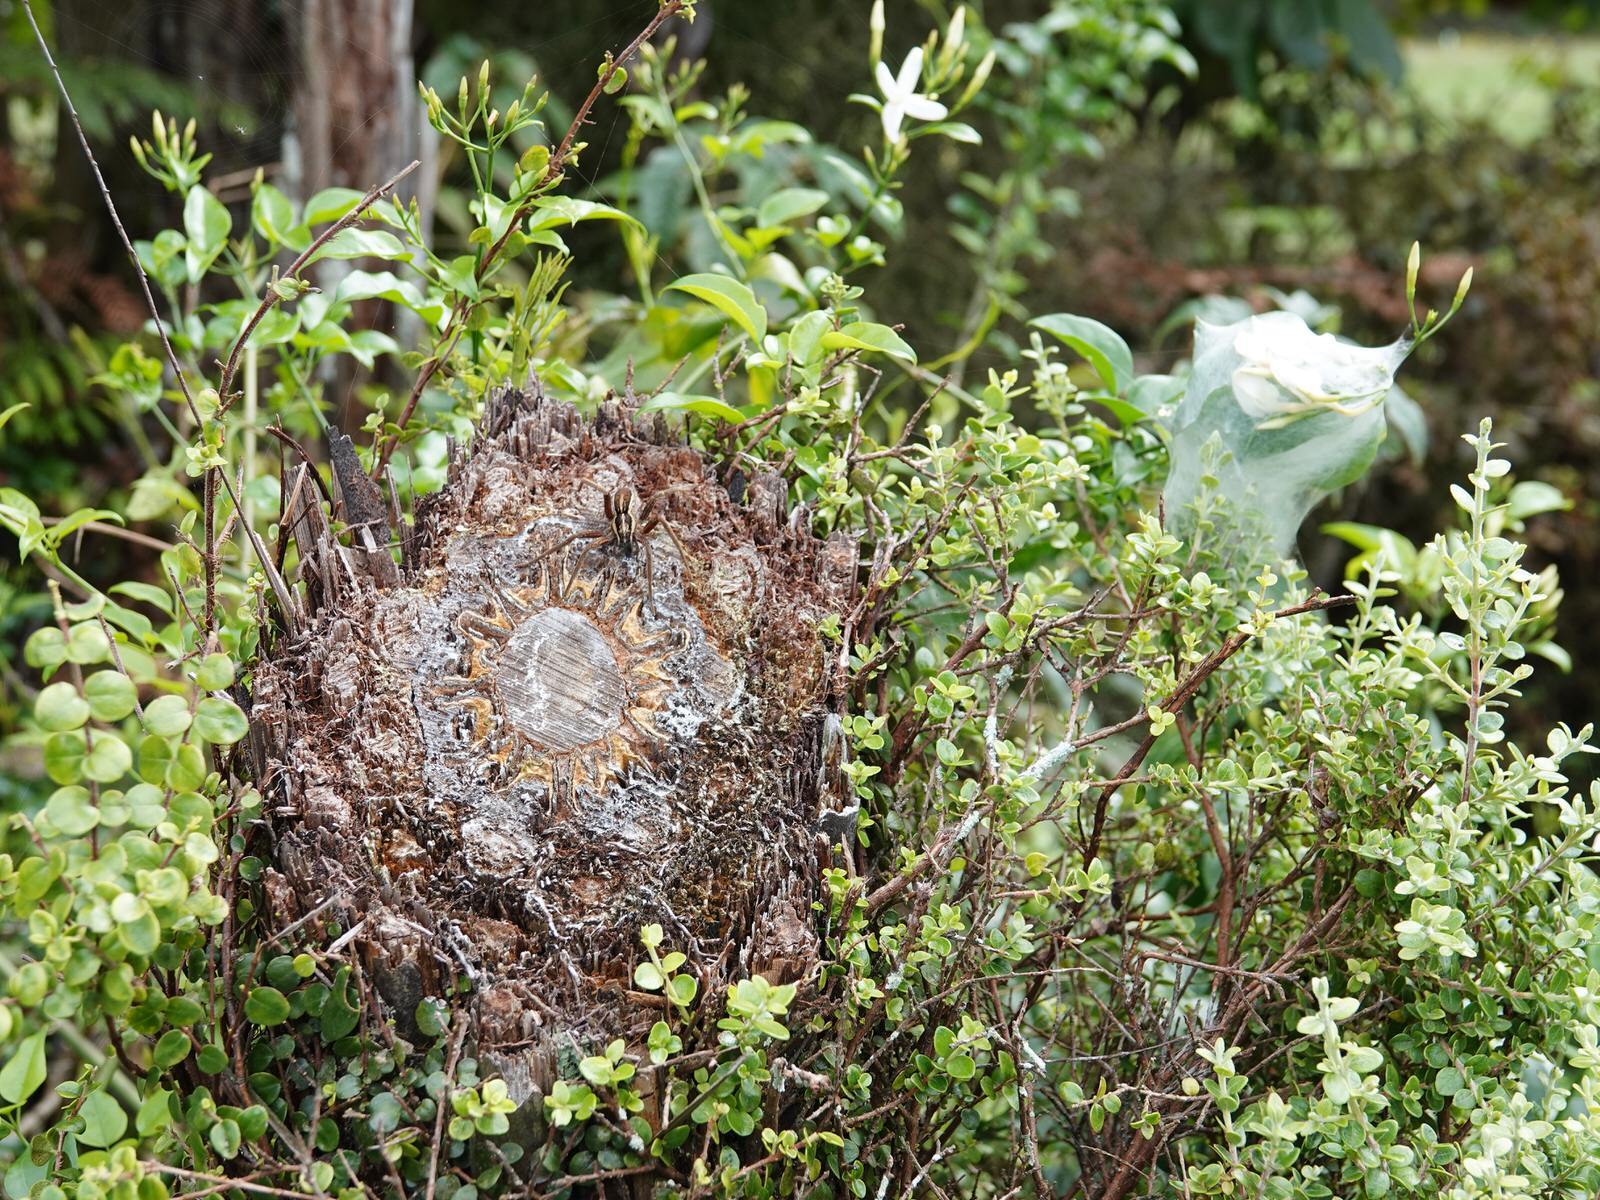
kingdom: Animalia
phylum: Arthropoda
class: Arachnida
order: Araneae
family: Pisauridae
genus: Dolomedes
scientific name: Dolomedes minor
